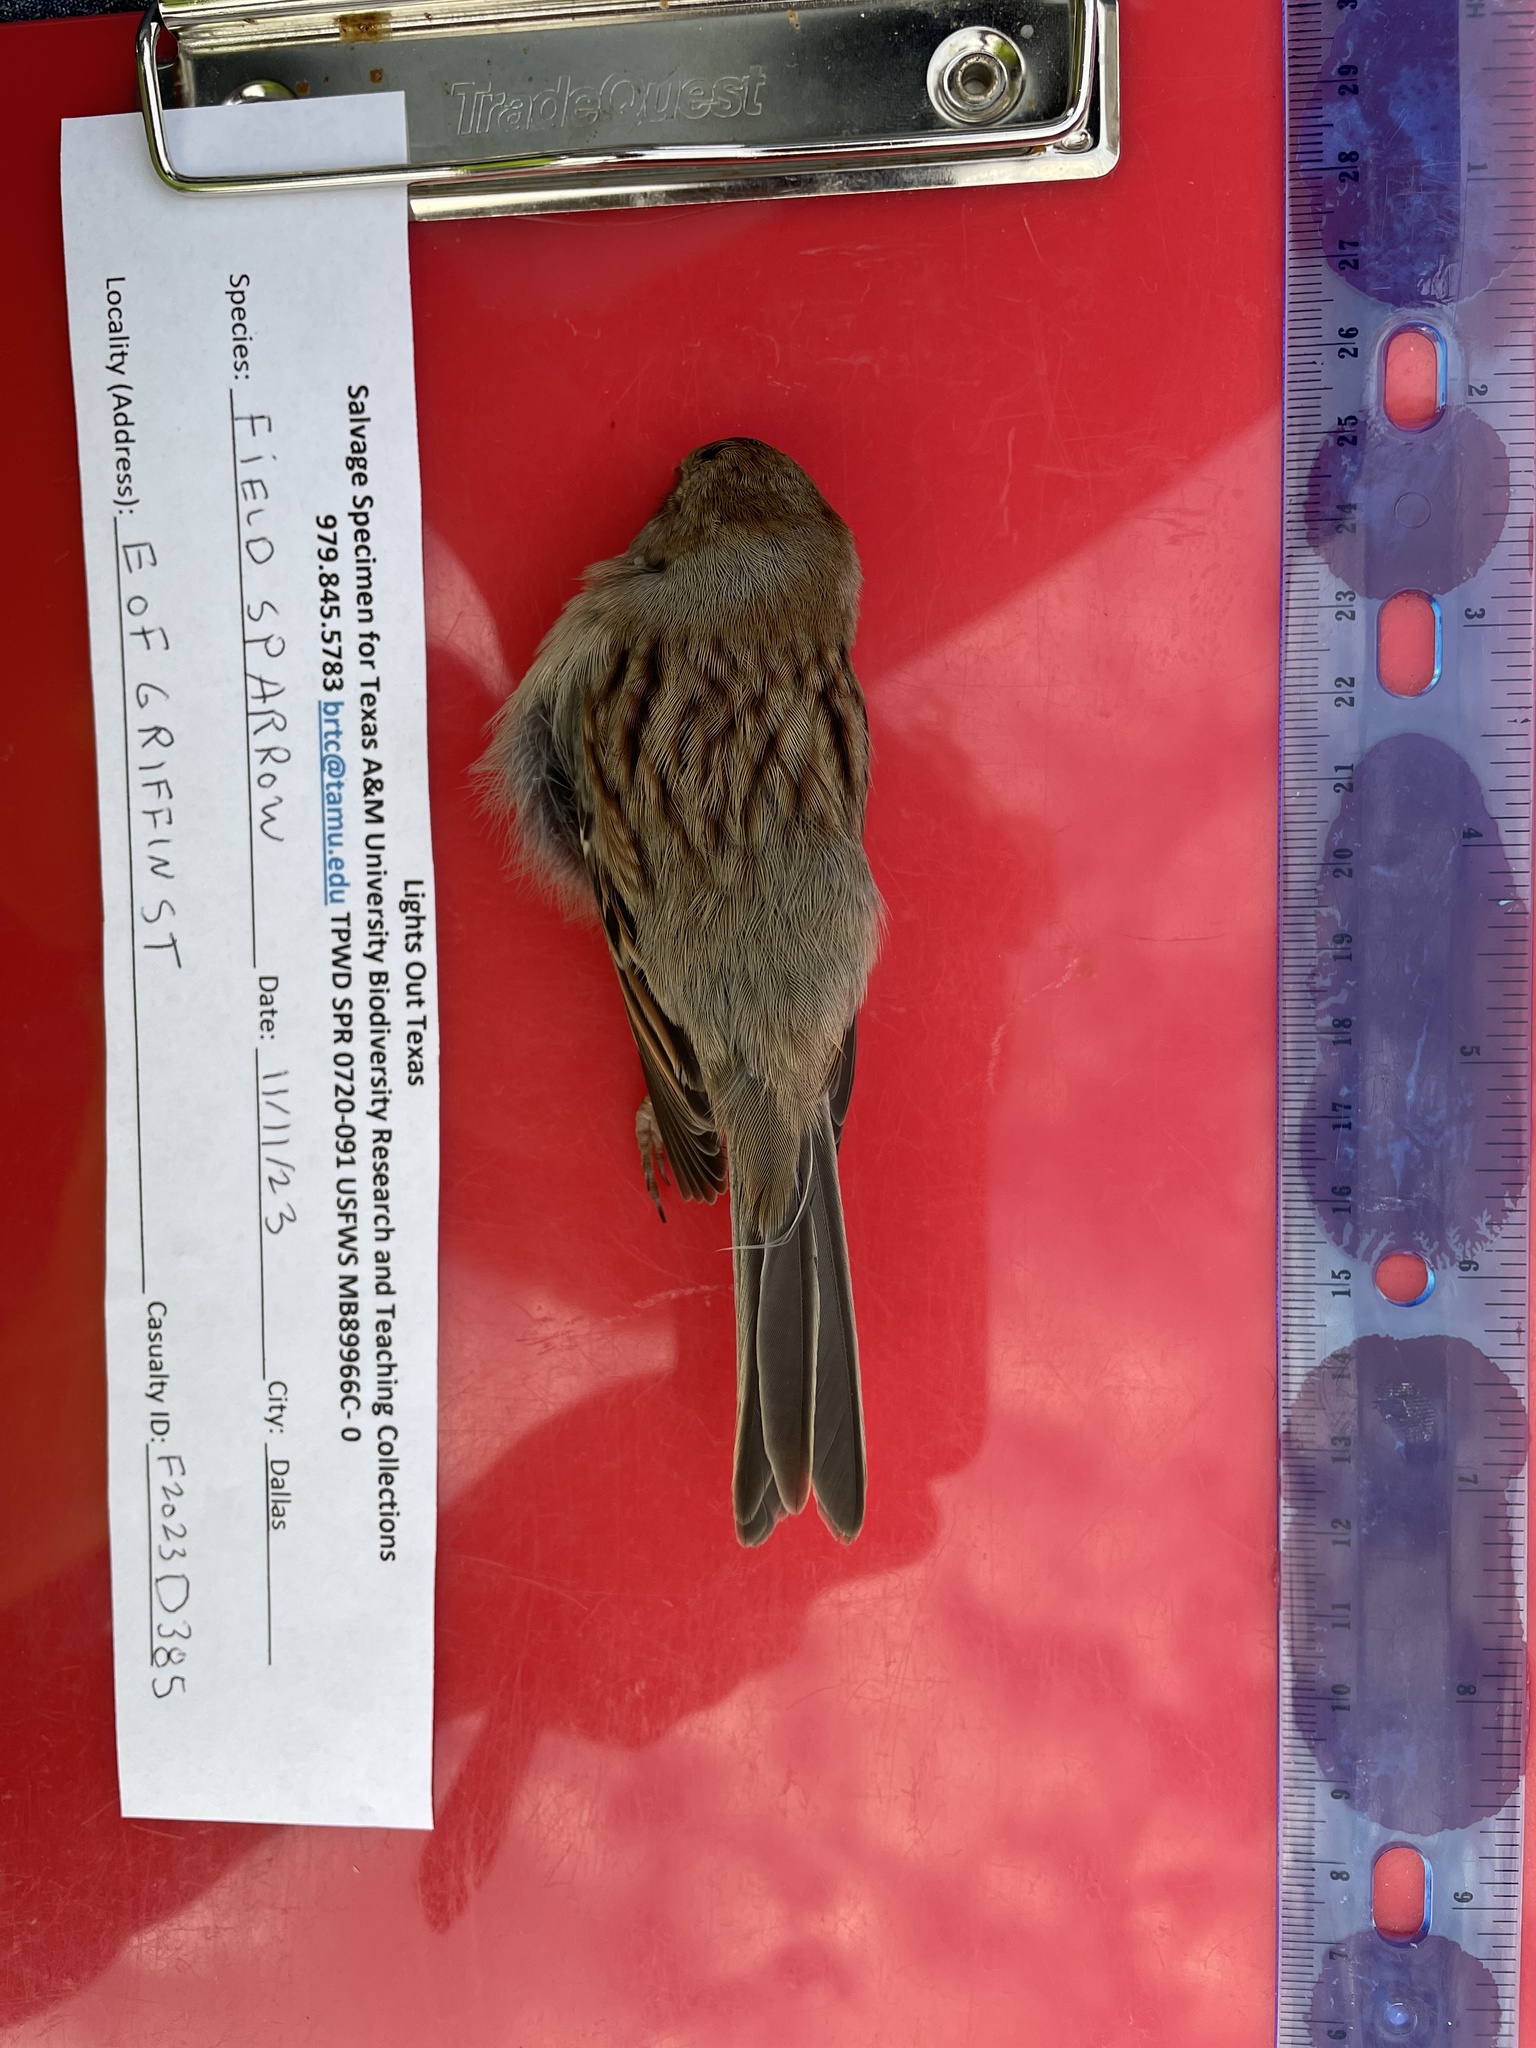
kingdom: Animalia
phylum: Chordata
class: Aves
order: Passeriformes
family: Passerellidae
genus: Spizella
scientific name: Spizella pusilla
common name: Field sparrow
